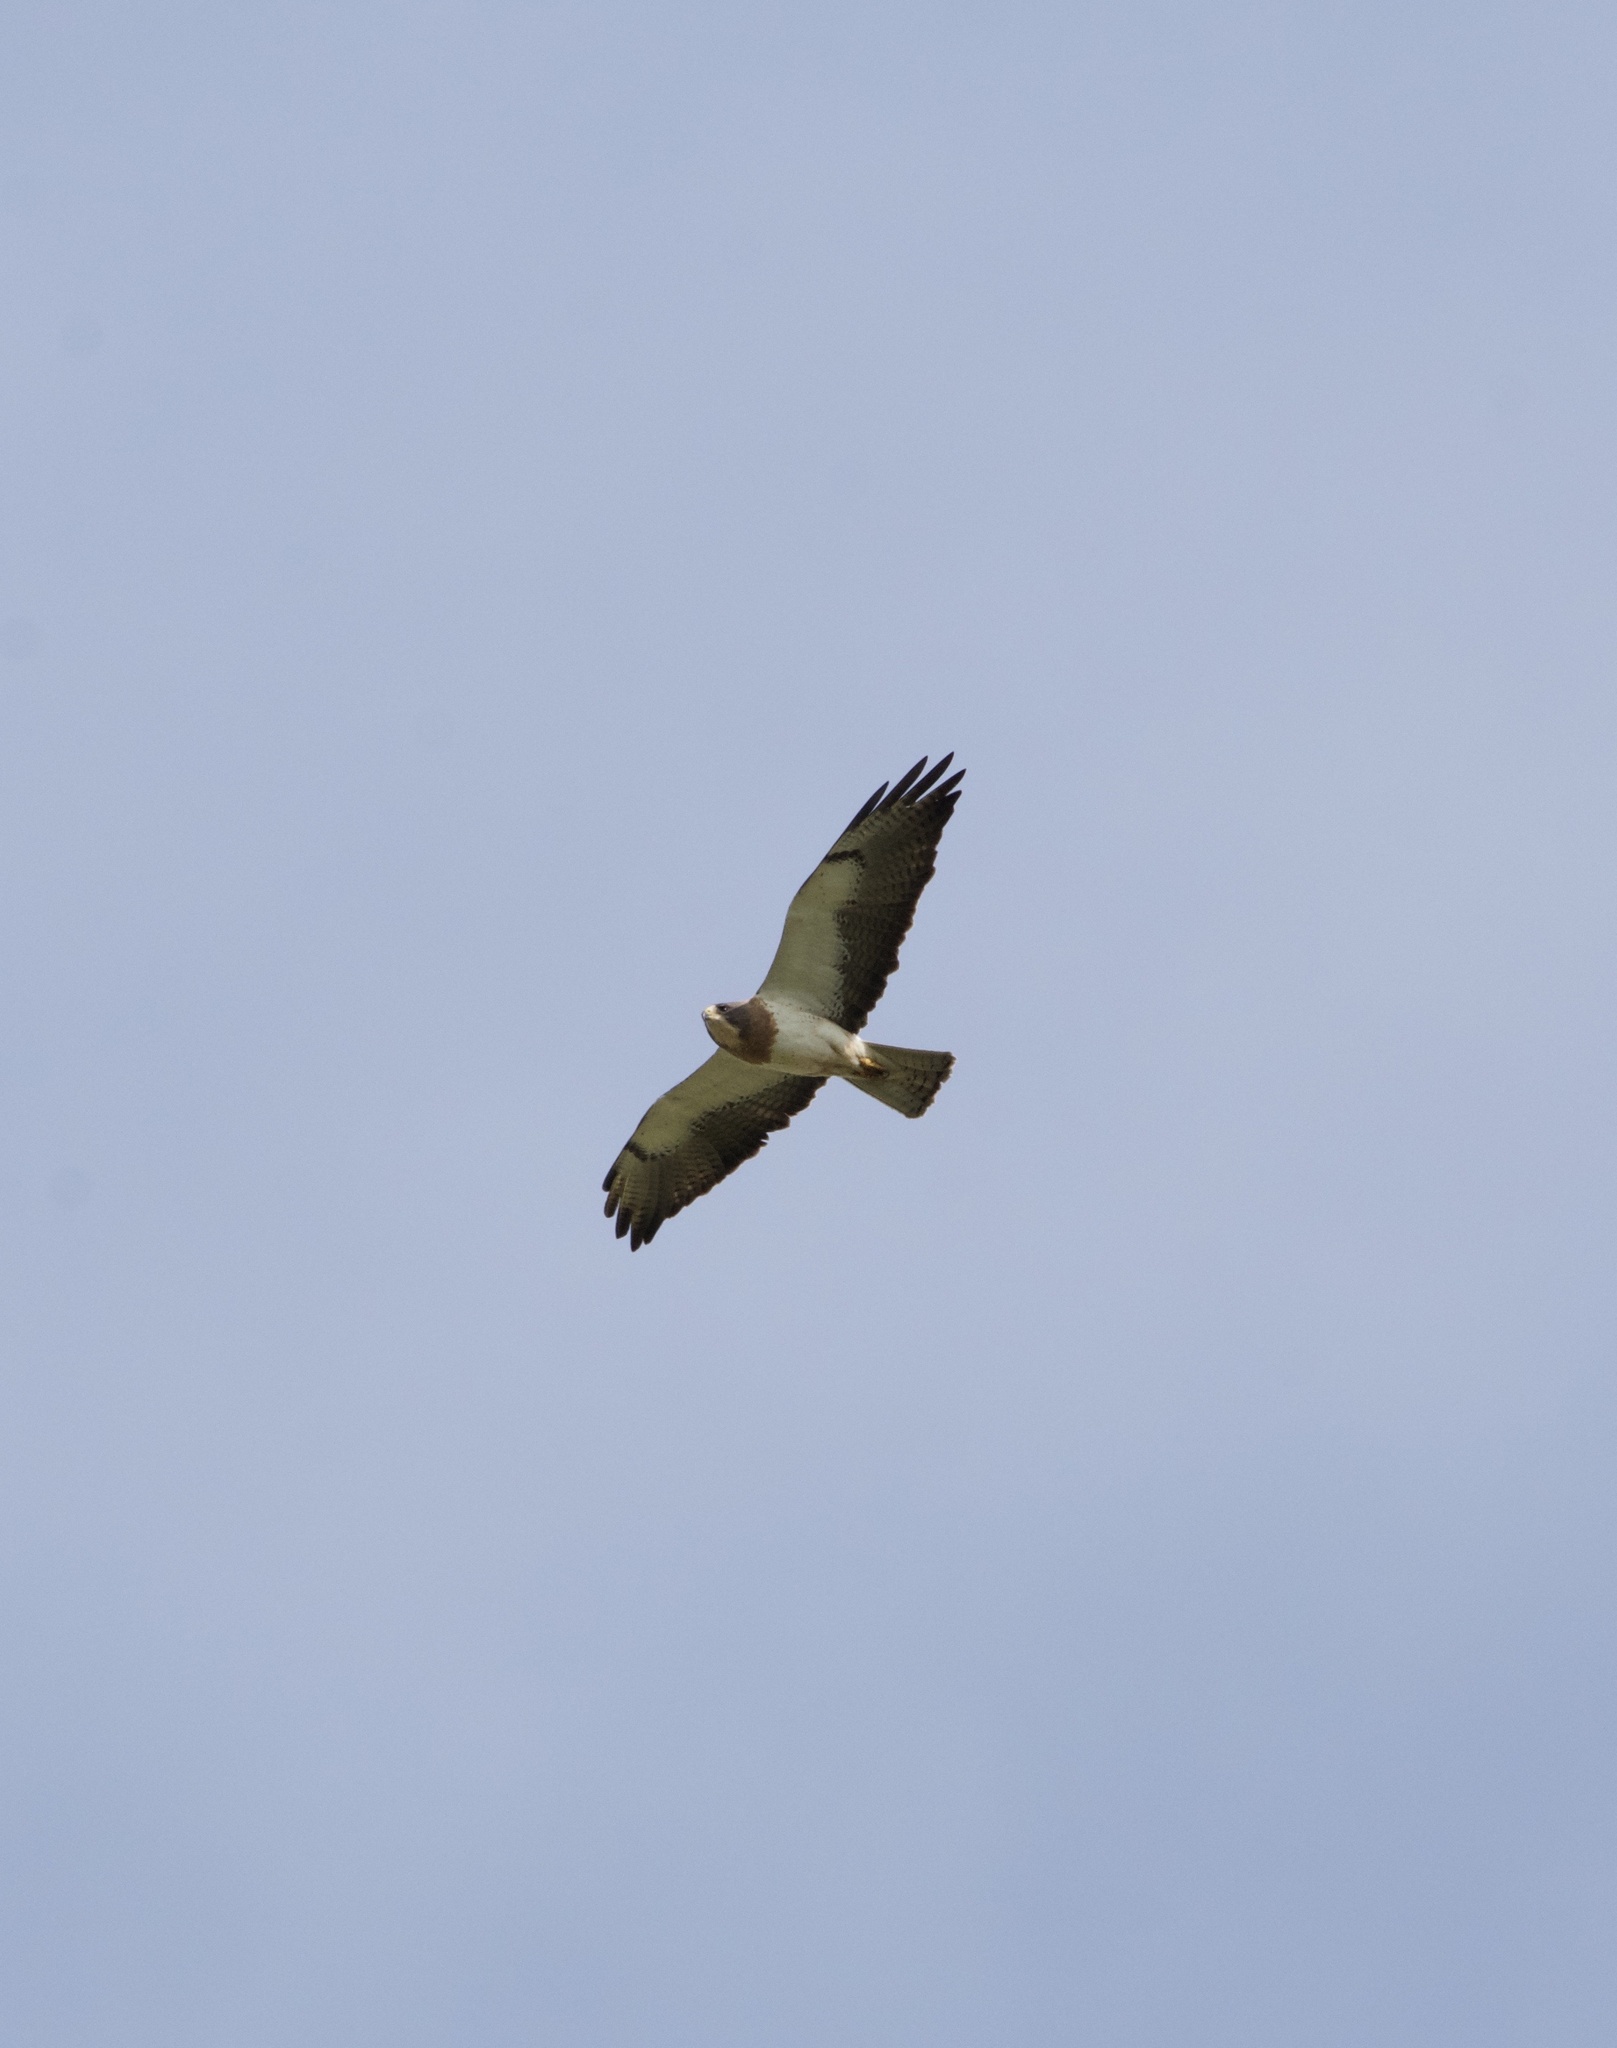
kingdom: Animalia
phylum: Chordata
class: Aves
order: Accipitriformes
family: Accipitridae
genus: Buteo
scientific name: Buteo swainsoni
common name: Swainson's hawk
